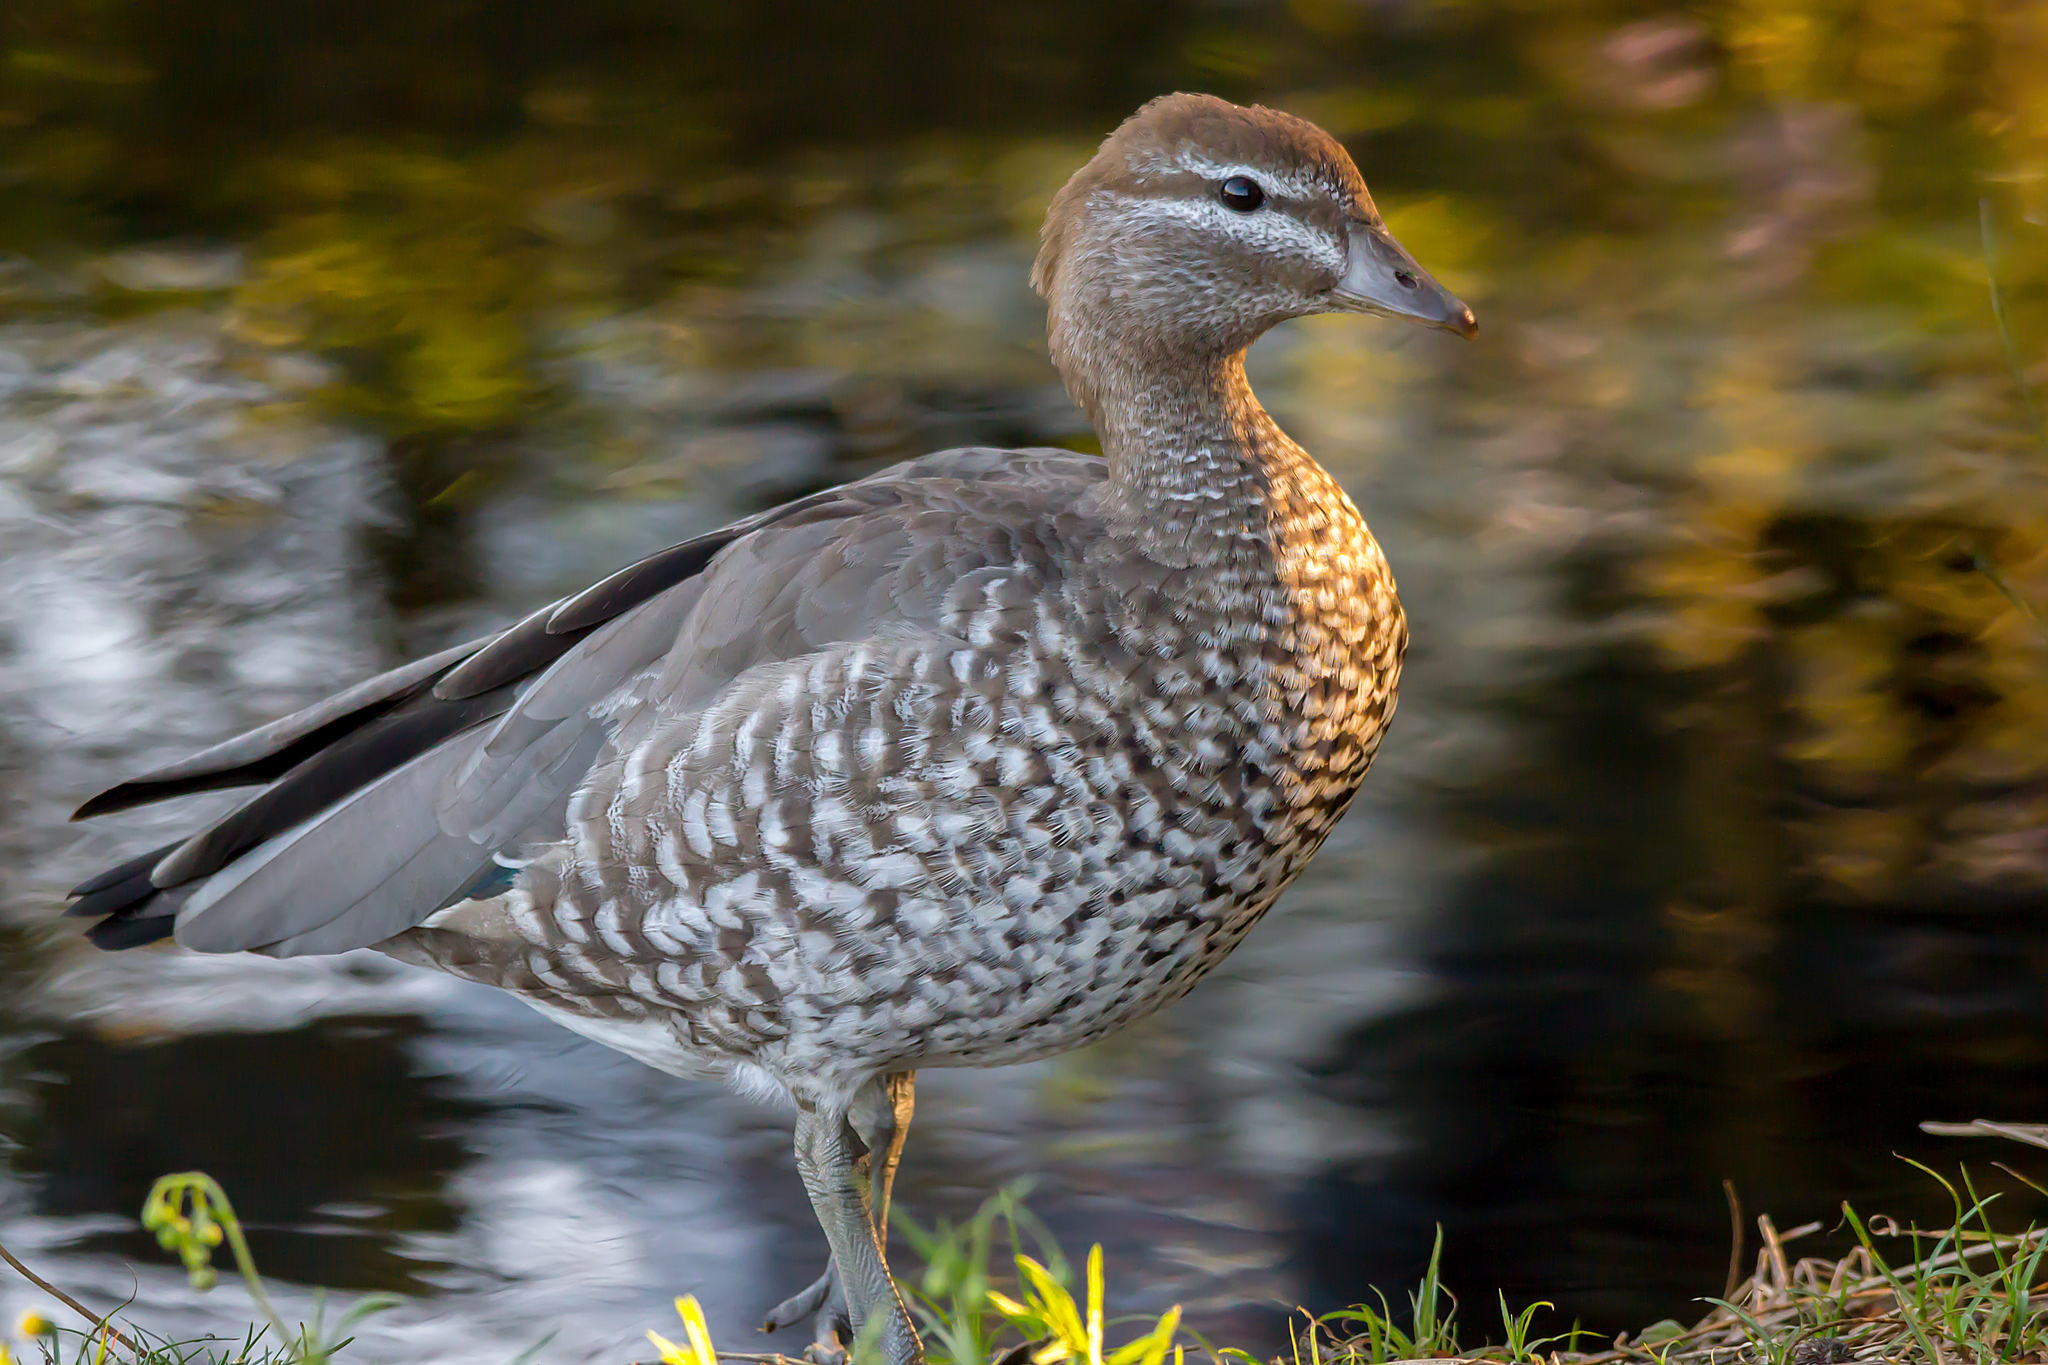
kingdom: Animalia
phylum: Chordata
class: Aves
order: Anseriformes
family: Anatidae
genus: Chenonetta
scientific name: Chenonetta jubata
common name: Maned duck
